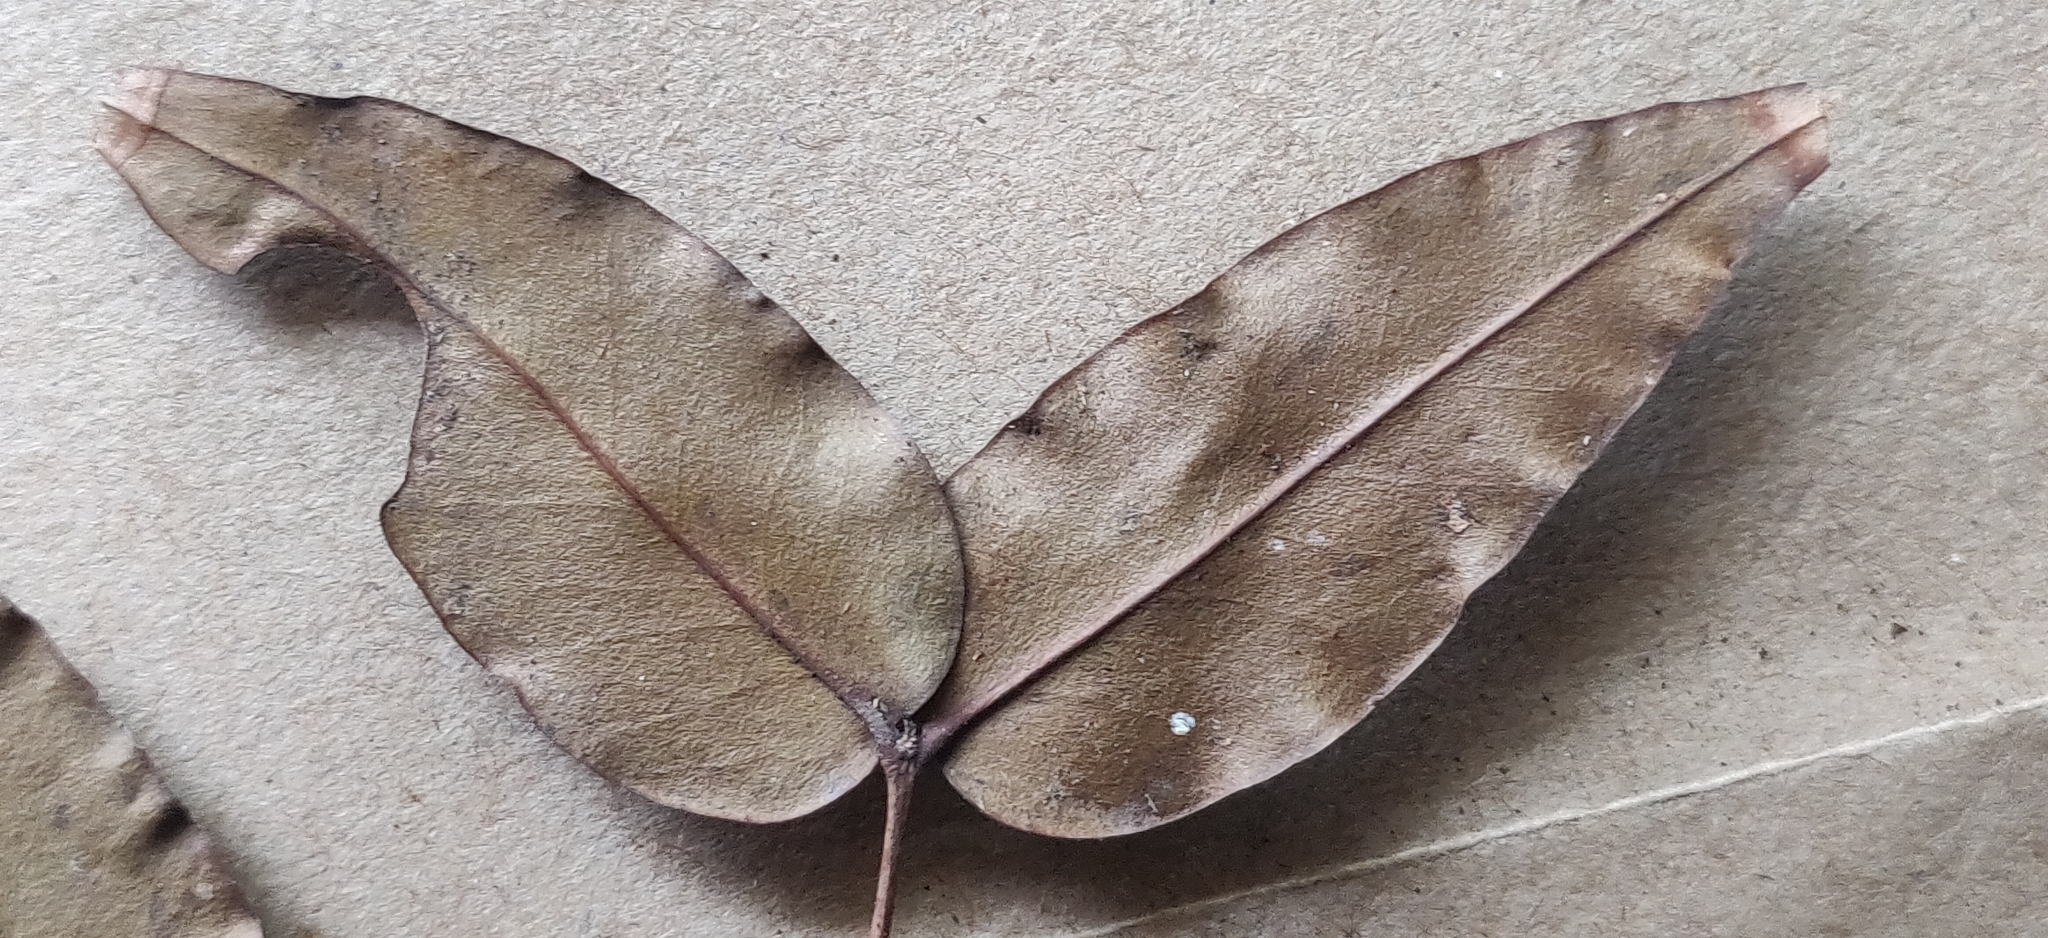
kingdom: Plantae
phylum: Tracheophyta
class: Magnoliopsida
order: Myrtales
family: Melastomataceae
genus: Memecylon
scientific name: Memecylon sessile
